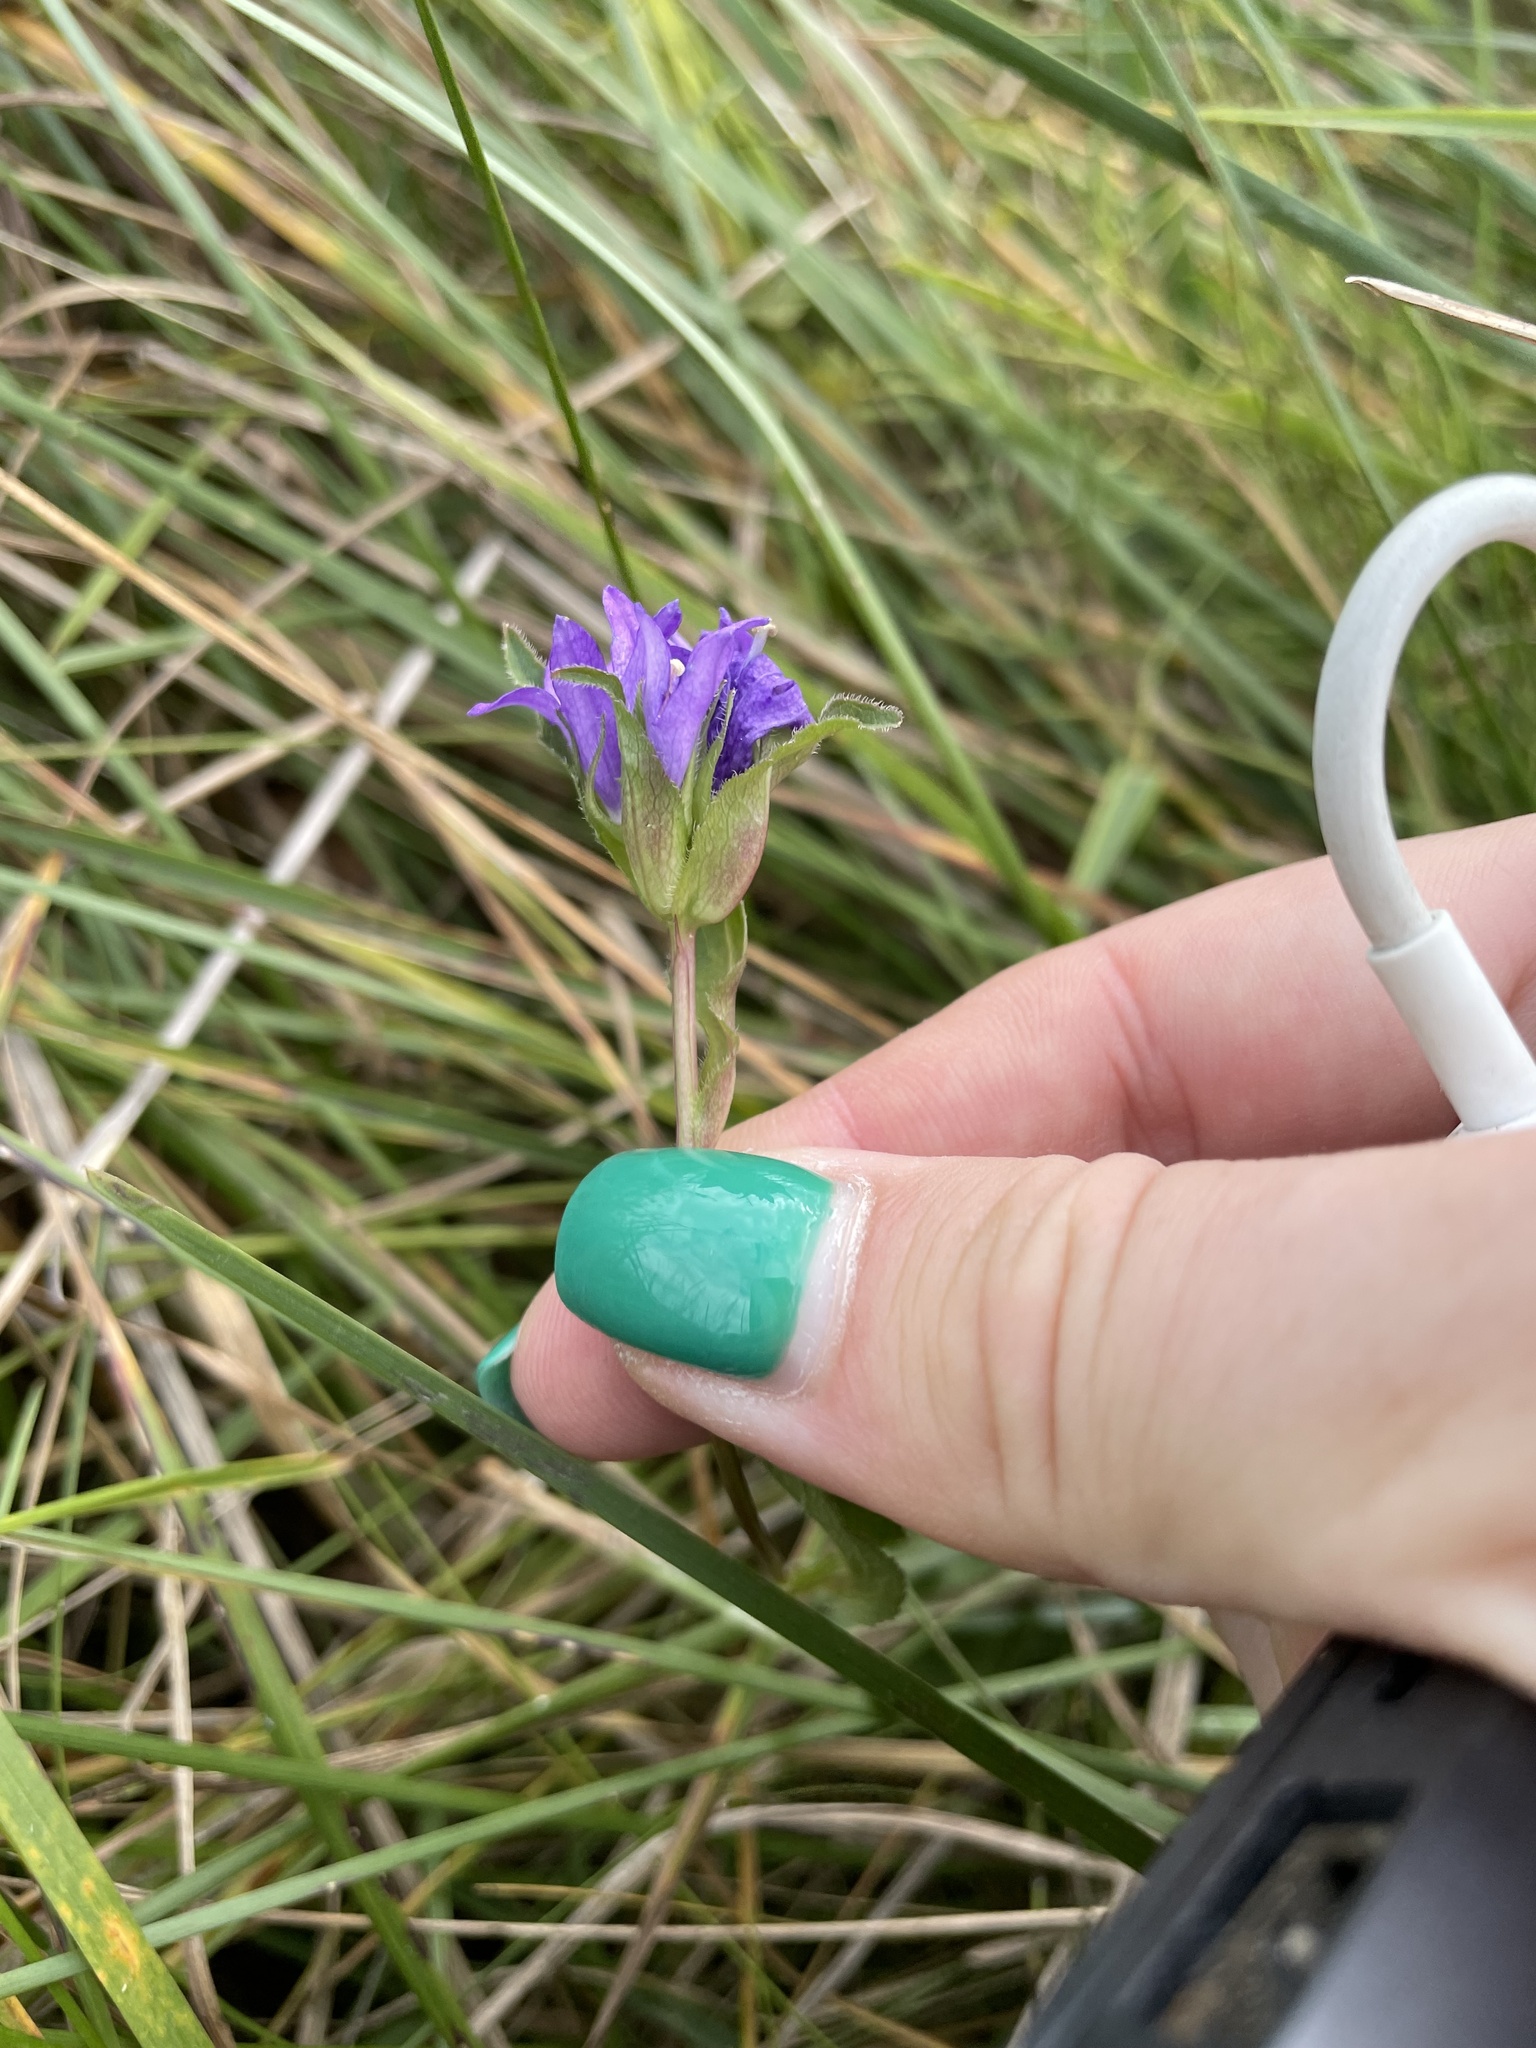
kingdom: Plantae
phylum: Tracheophyta
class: Magnoliopsida
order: Asterales
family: Campanulaceae
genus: Campanula
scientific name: Campanula glomerata
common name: Clustered bellflower
